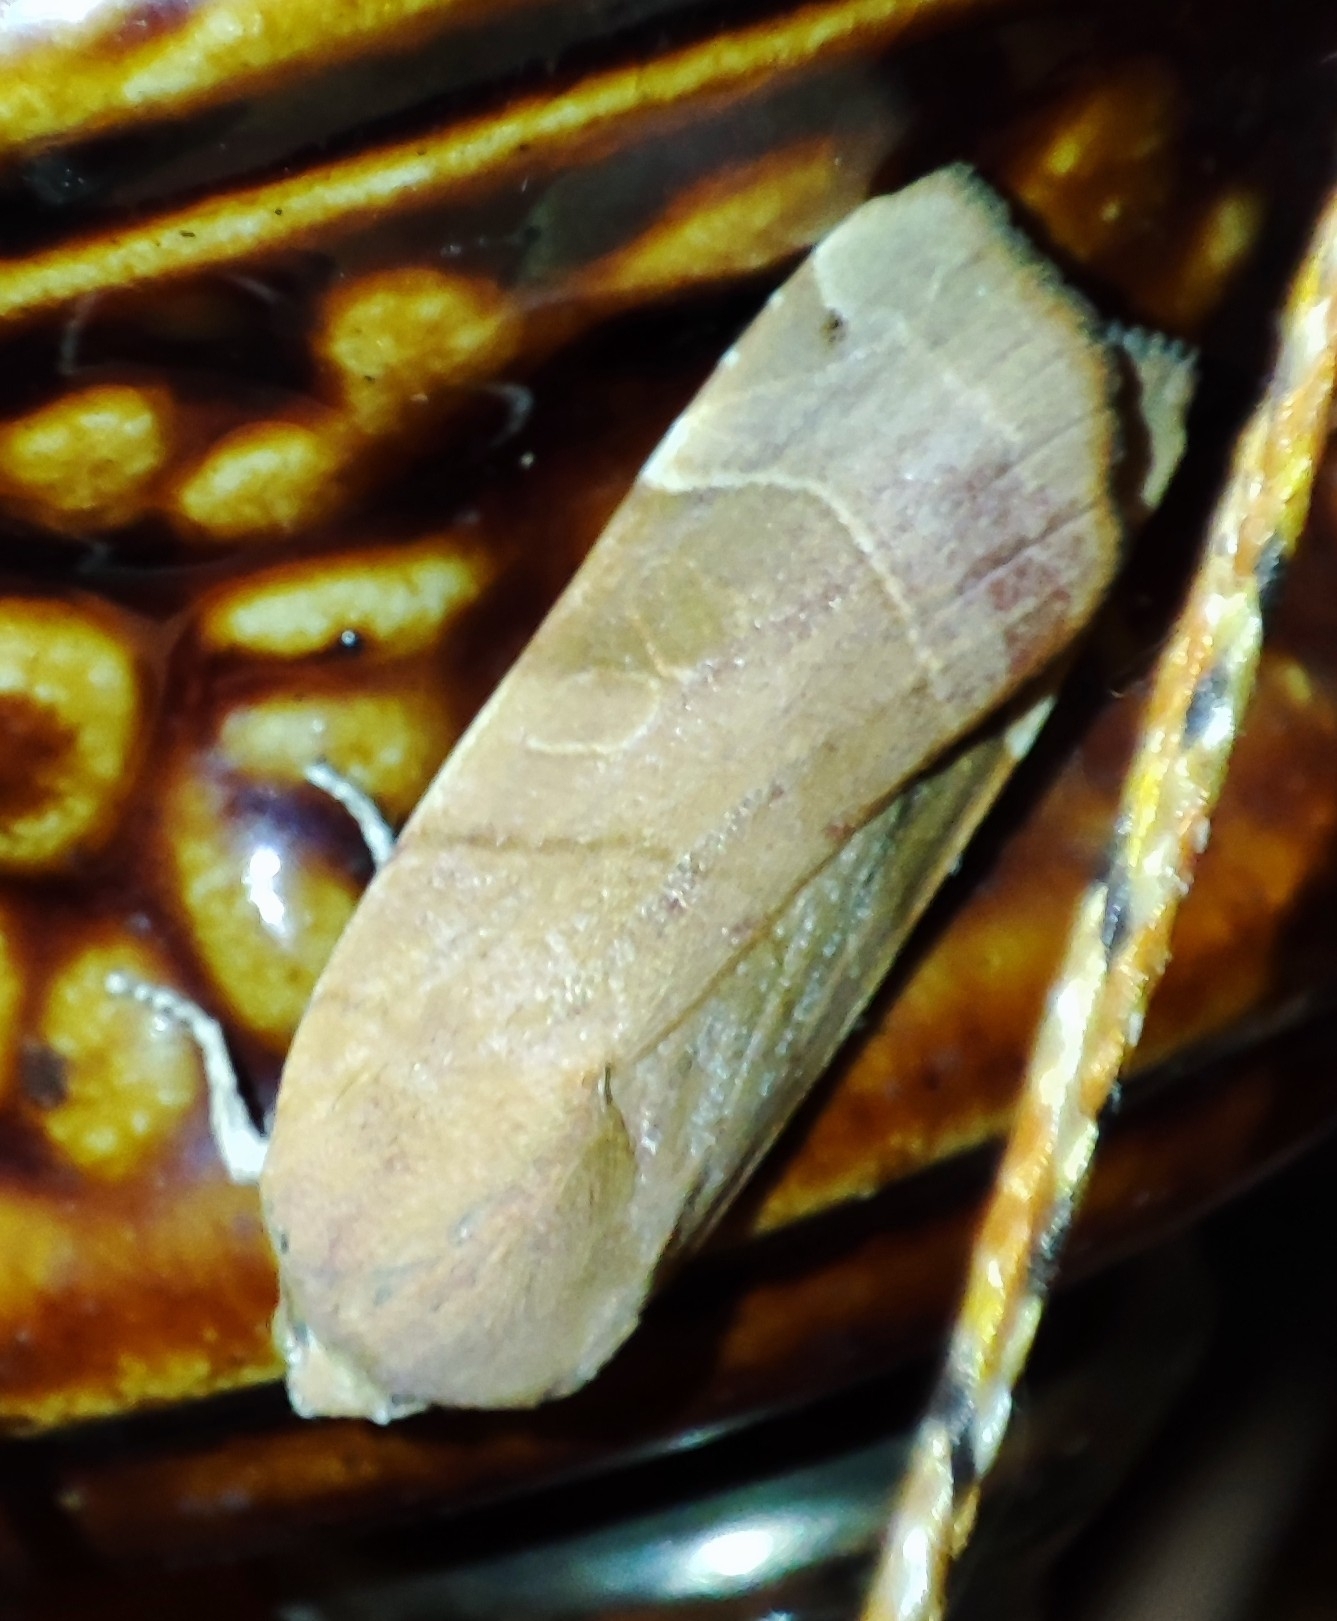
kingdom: Animalia
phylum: Arthropoda
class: Insecta
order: Lepidoptera
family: Noctuidae
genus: Noctua
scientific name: Noctua fimbriata
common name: Broad-bordered yellow underwing
